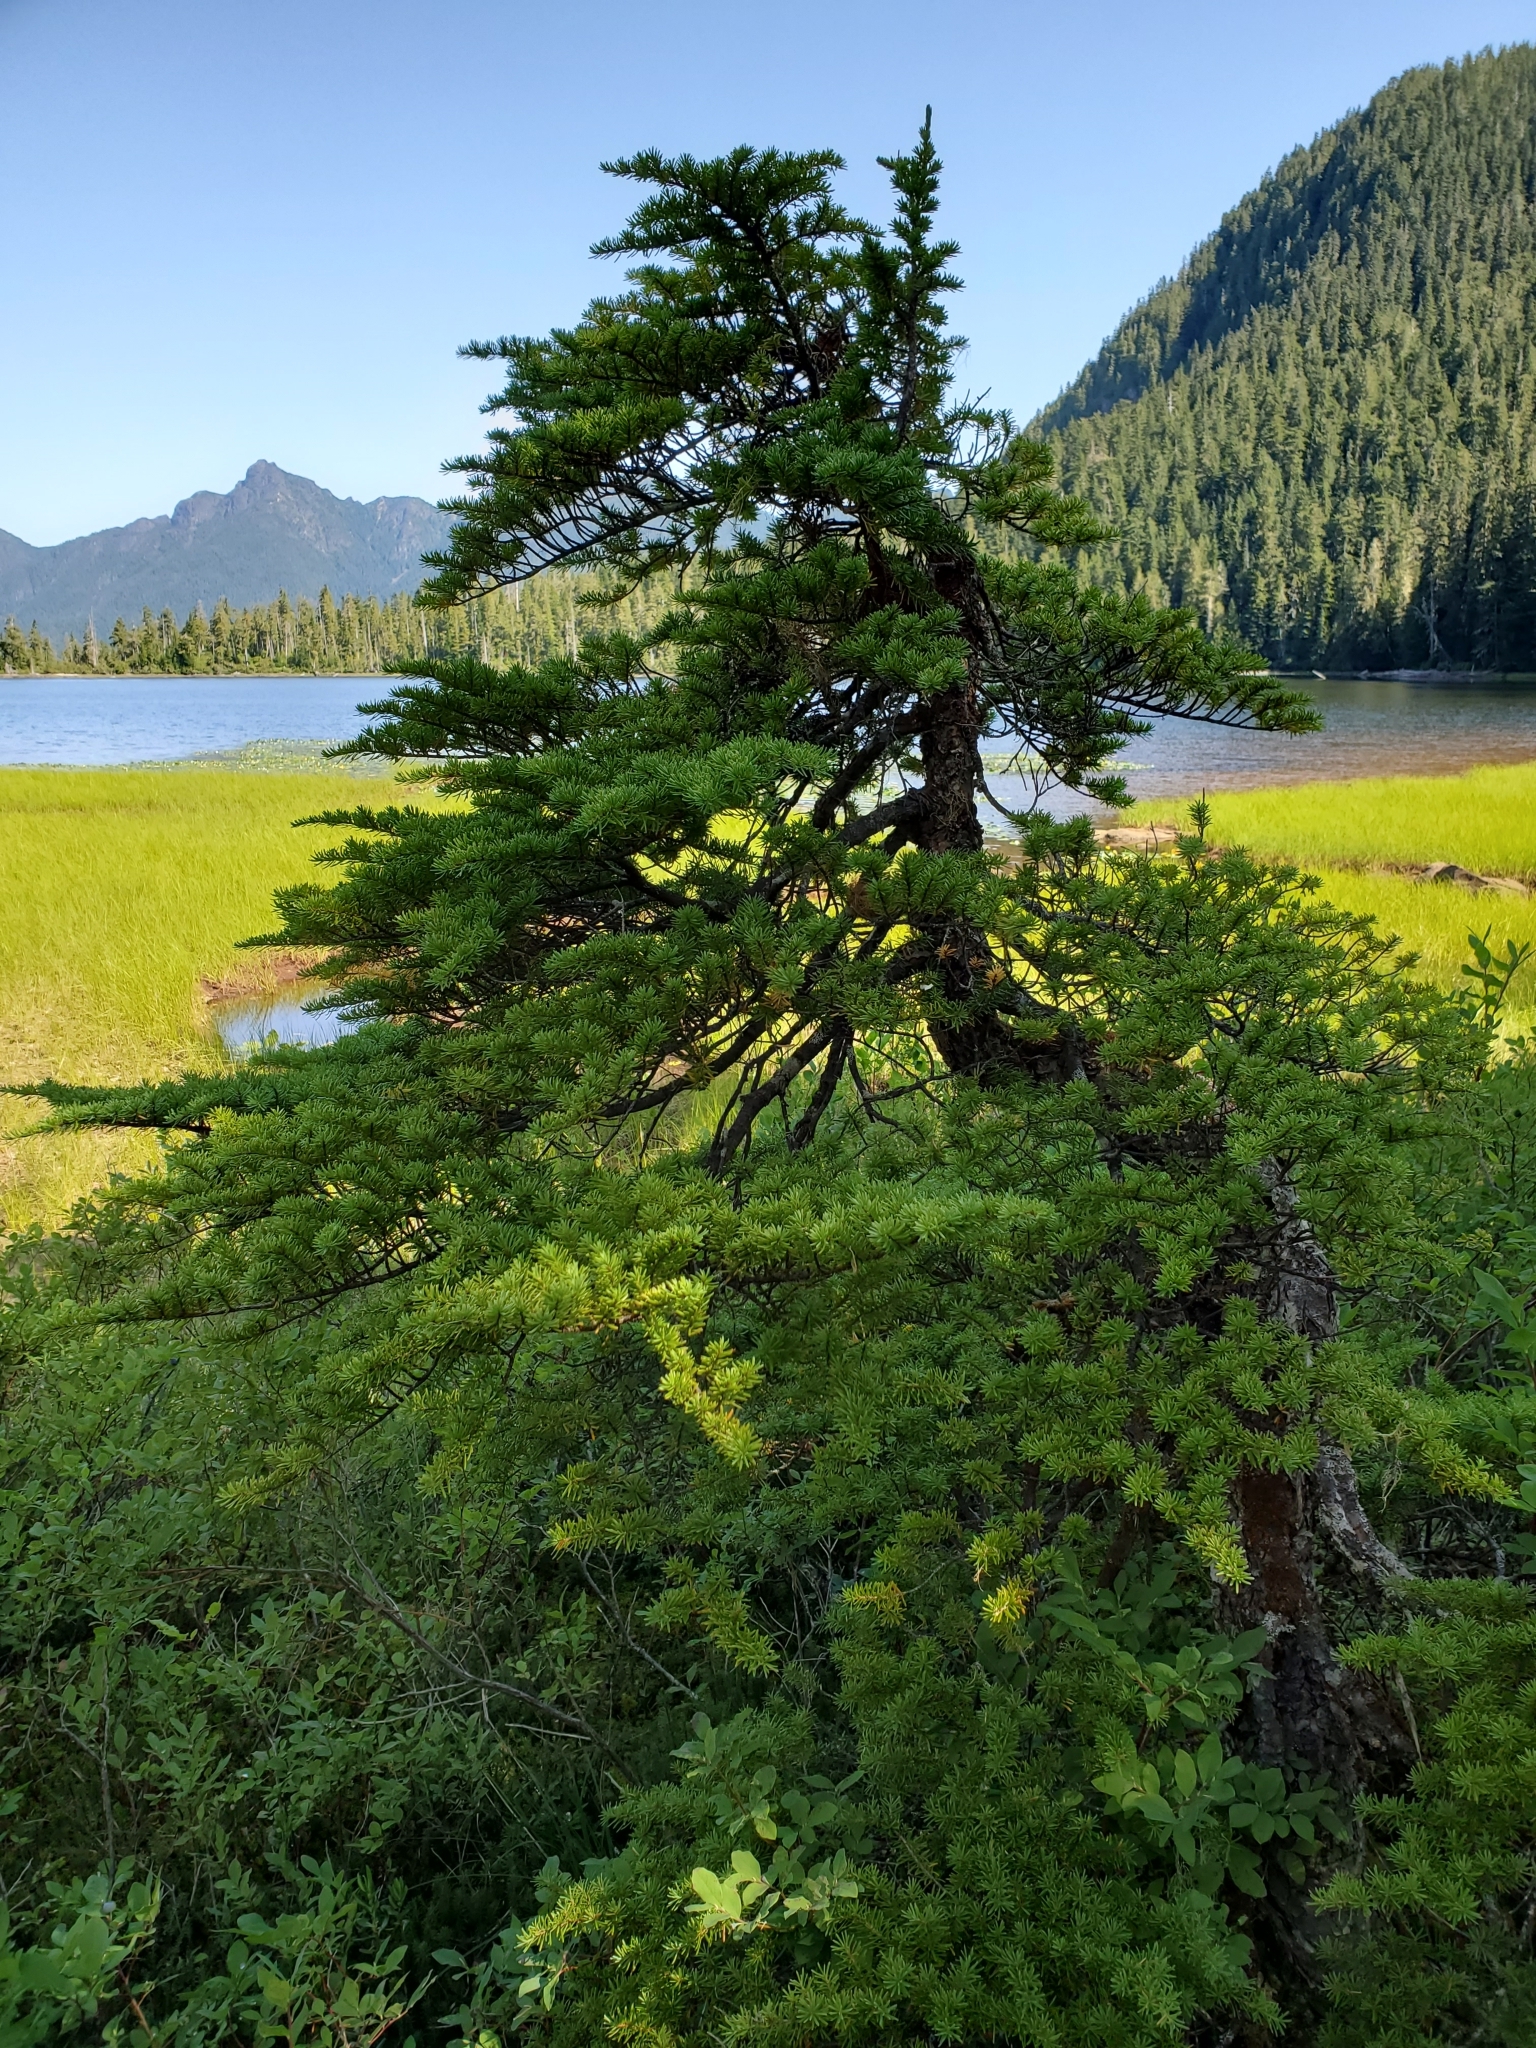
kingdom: Plantae
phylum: Tracheophyta
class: Pinopsida
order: Pinales
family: Pinaceae
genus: Tsuga
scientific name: Tsuga mertensiana
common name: Mountain hemlock
